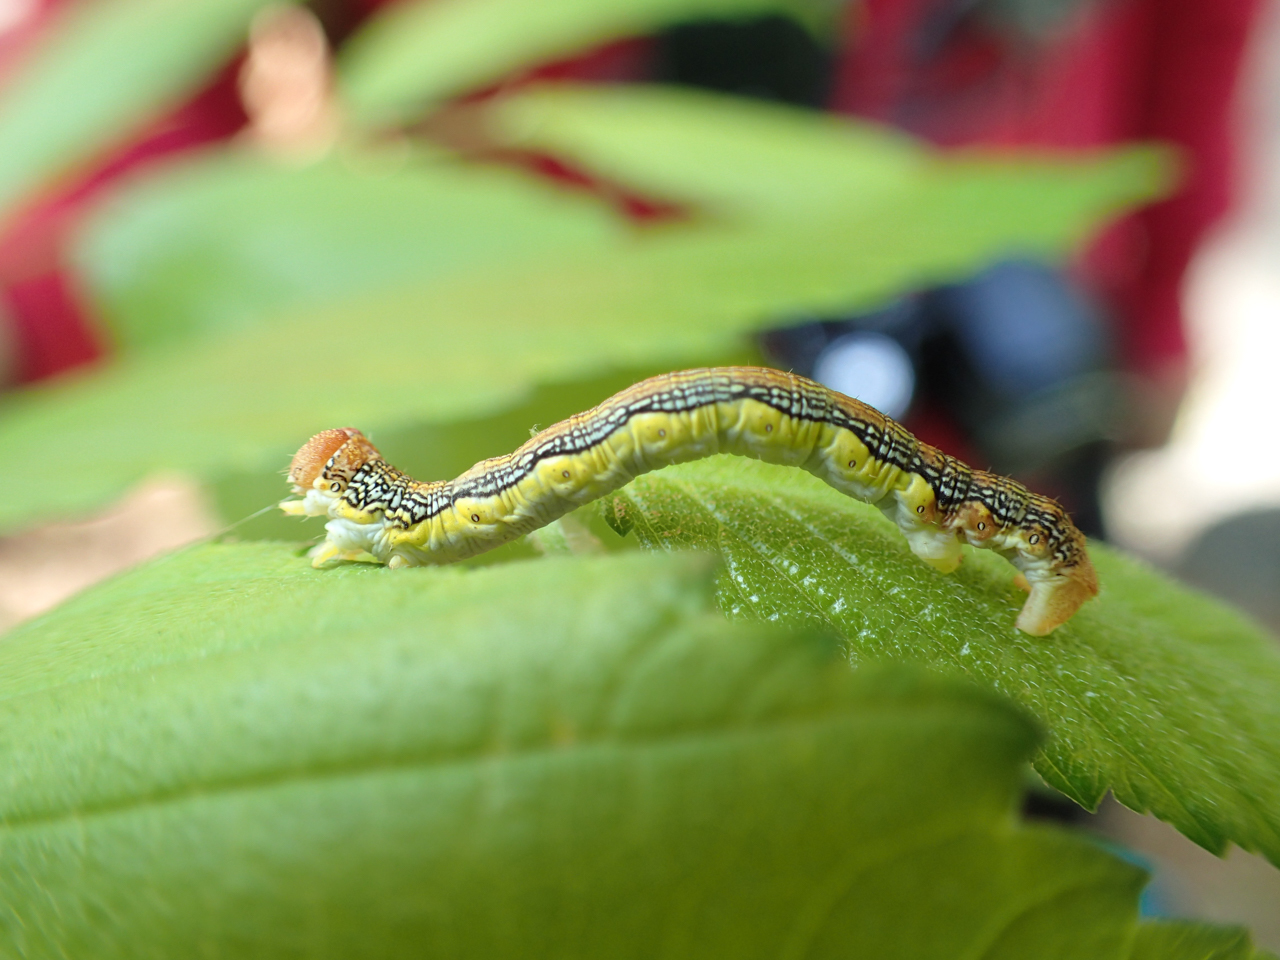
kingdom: Animalia
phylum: Arthropoda
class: Insecta
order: Lepidoptera
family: Geometridae
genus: Erannis
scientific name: Erannis tiliaria
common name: Linden looper
